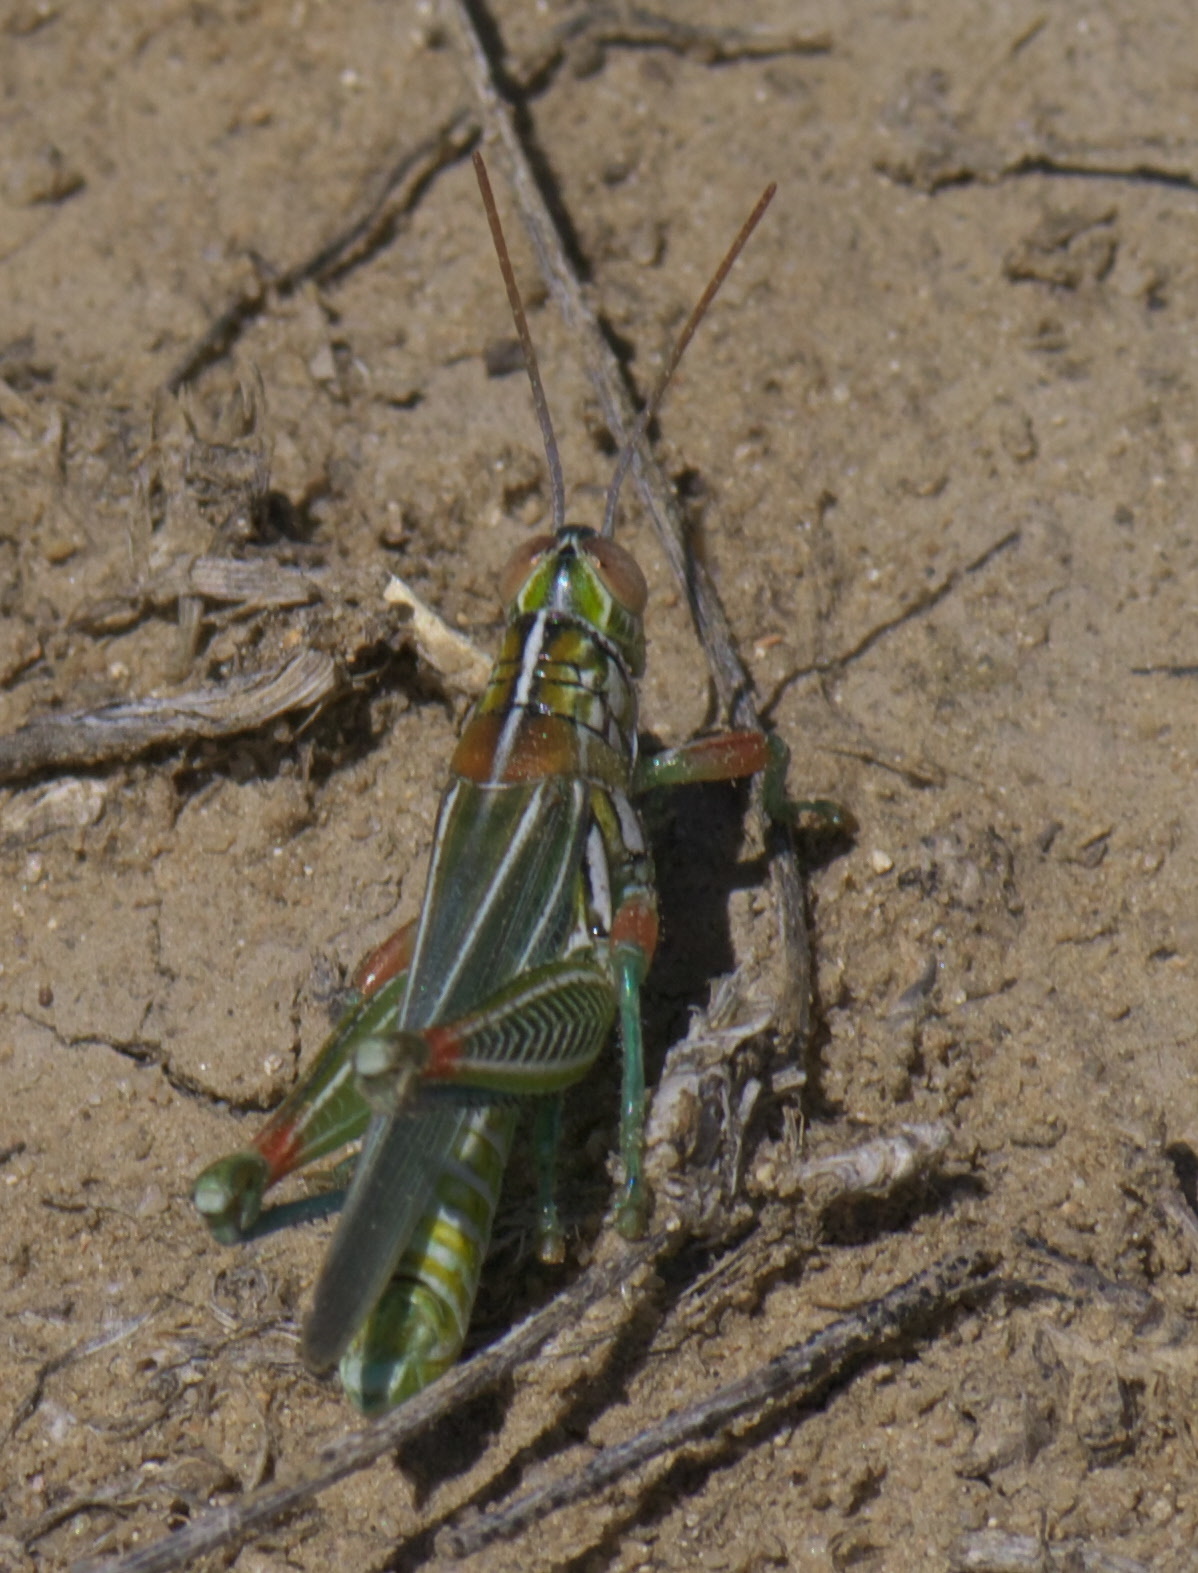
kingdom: Animalia
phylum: Arthropoda
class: Insecta
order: Orthoptera
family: Acrididae
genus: Hesperotettix
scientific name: Hesperotettix viridis
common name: Meadow purple-striped grasshopper
